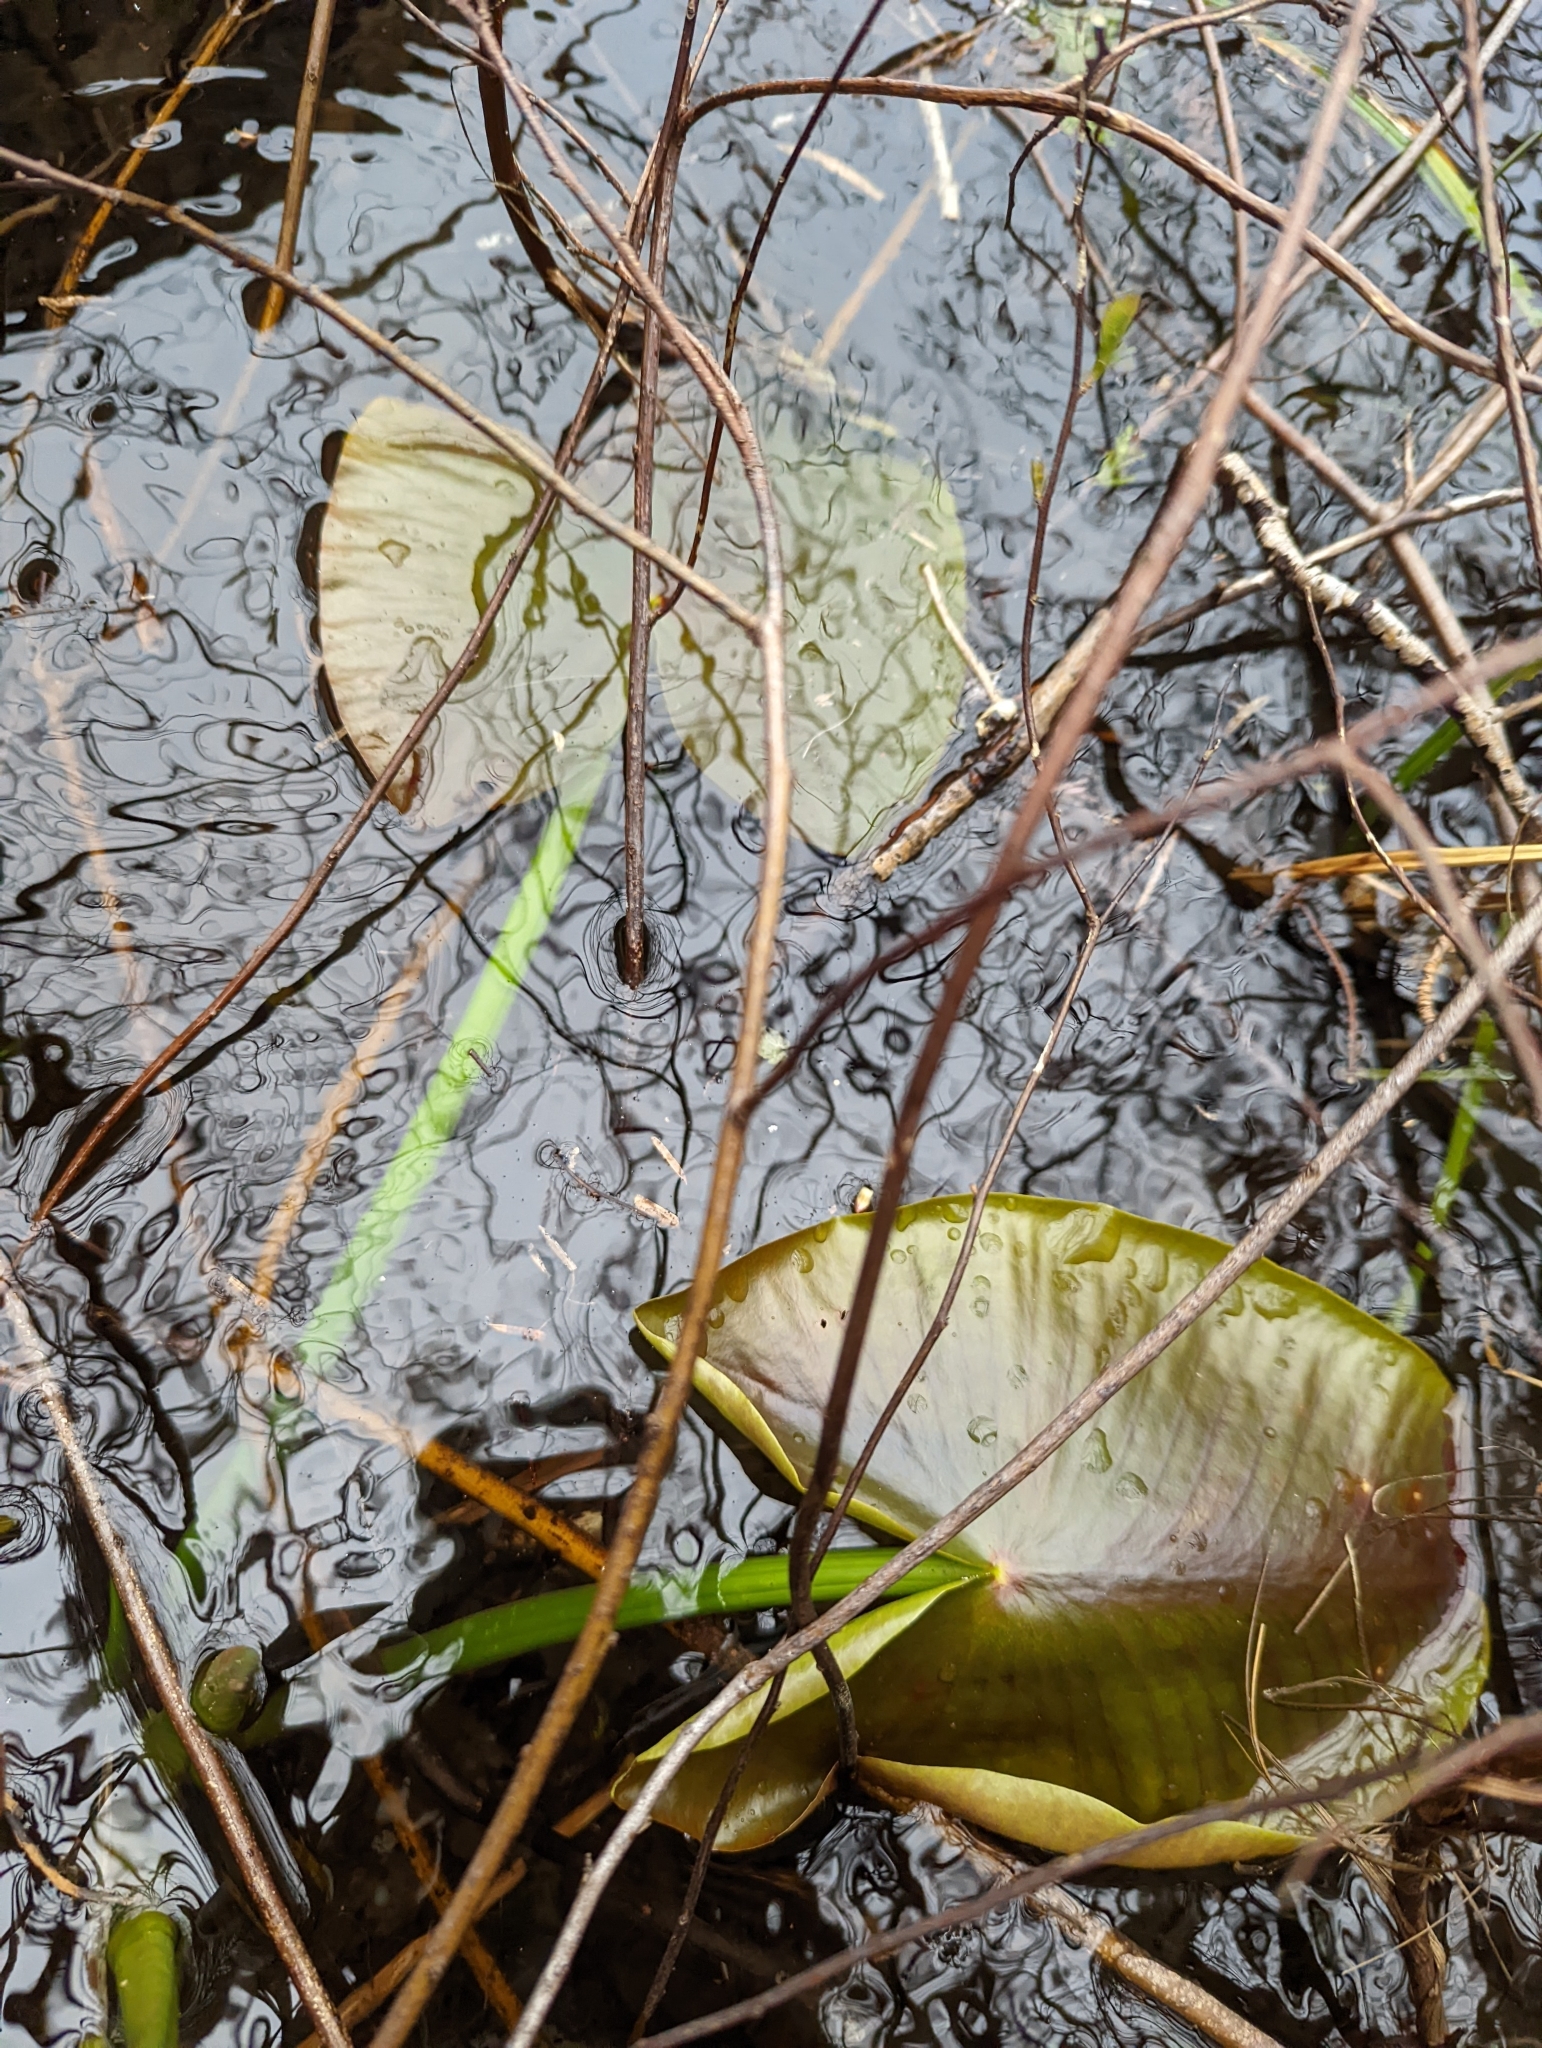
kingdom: Plantae
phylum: Tracheophyta
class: Magnoliopsida
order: Nymphaeales
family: Nymphaeaceae
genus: Nuphar
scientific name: Nuphar polysepala
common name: Rocky mountain cow-lily
